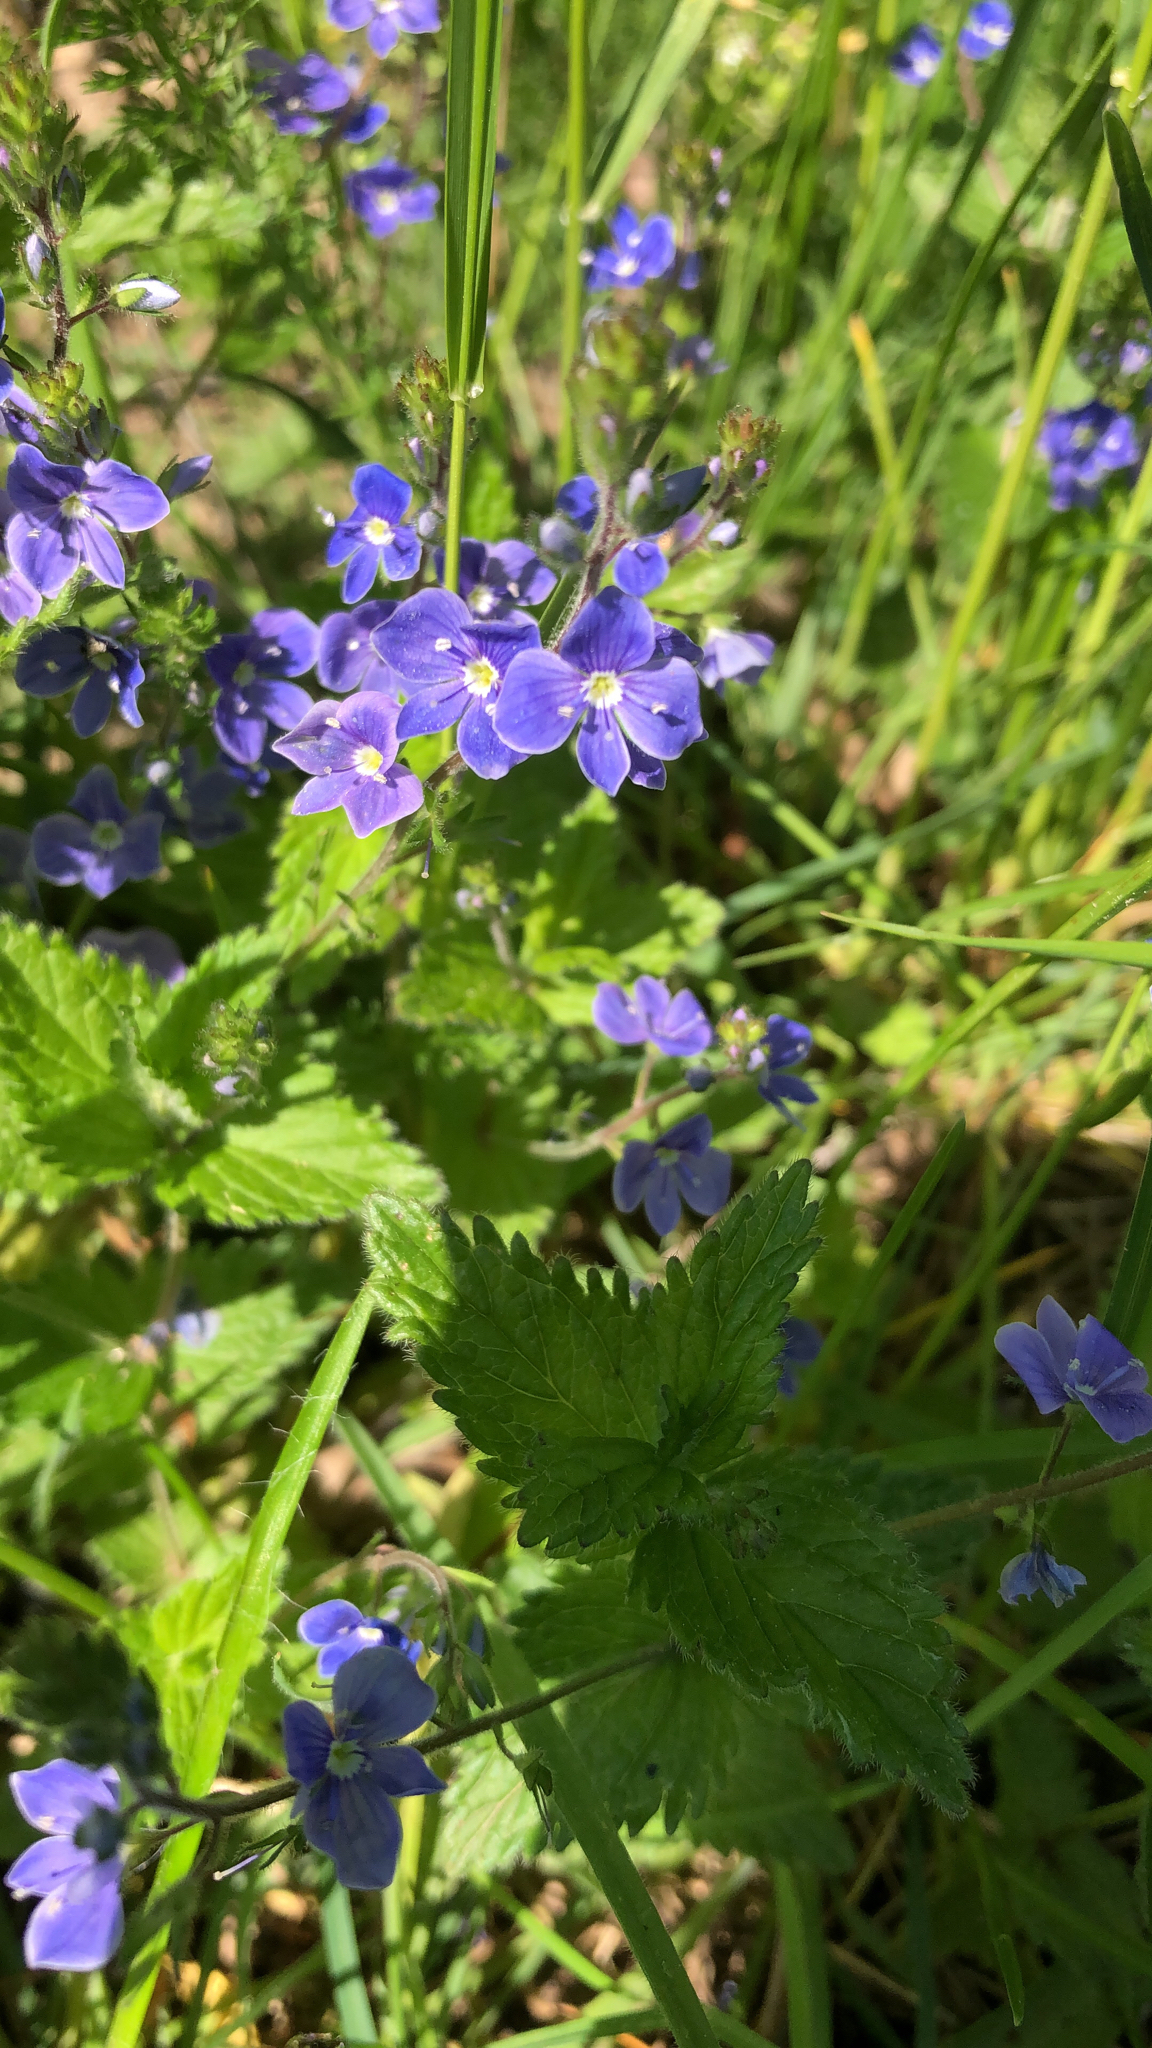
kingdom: Plantae
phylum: Tracheophyta
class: Magnoliopsida
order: Lamiales
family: Plantaginaceae
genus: Veronica
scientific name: Veronica chamaedrys
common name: Germander speedwell
